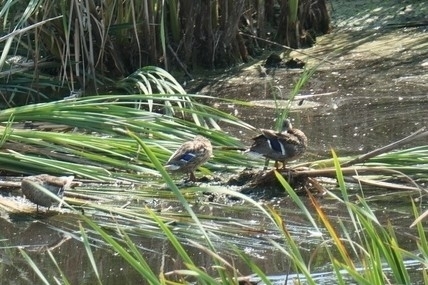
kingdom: Animalia
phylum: Chordata
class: Aves
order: Anseriformes
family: Anatidae
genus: Anas
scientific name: Anas platyrhynchos
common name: Mallard
